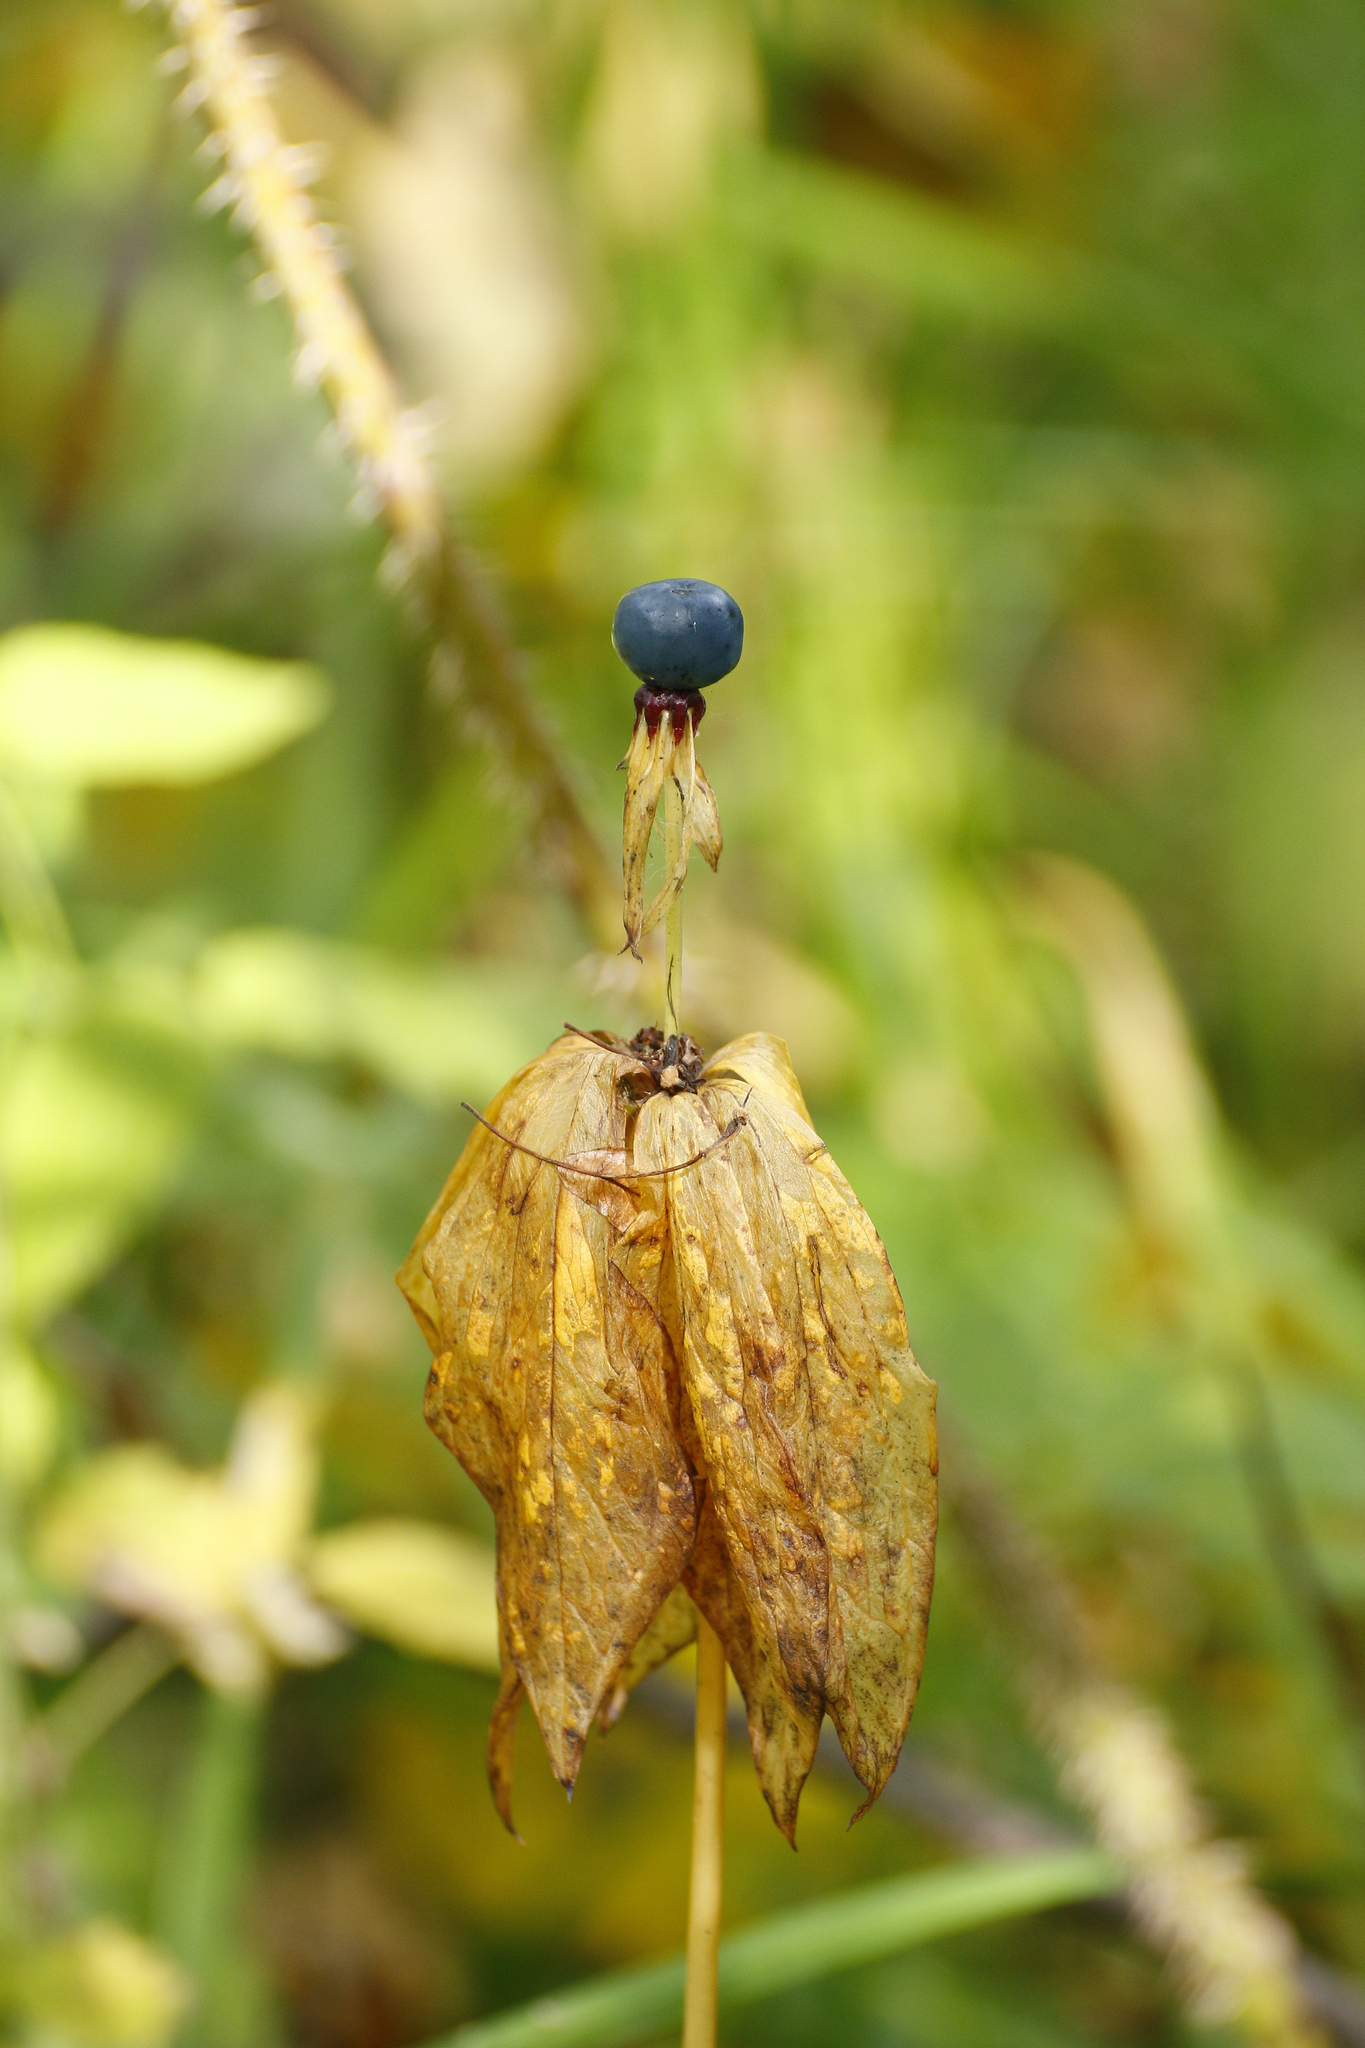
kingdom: Plantae
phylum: Tracheophyta
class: Liliopsida
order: Liliales
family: Melanthiaceae
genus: Paris
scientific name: Paris quadrifolia
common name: Herb-paris
